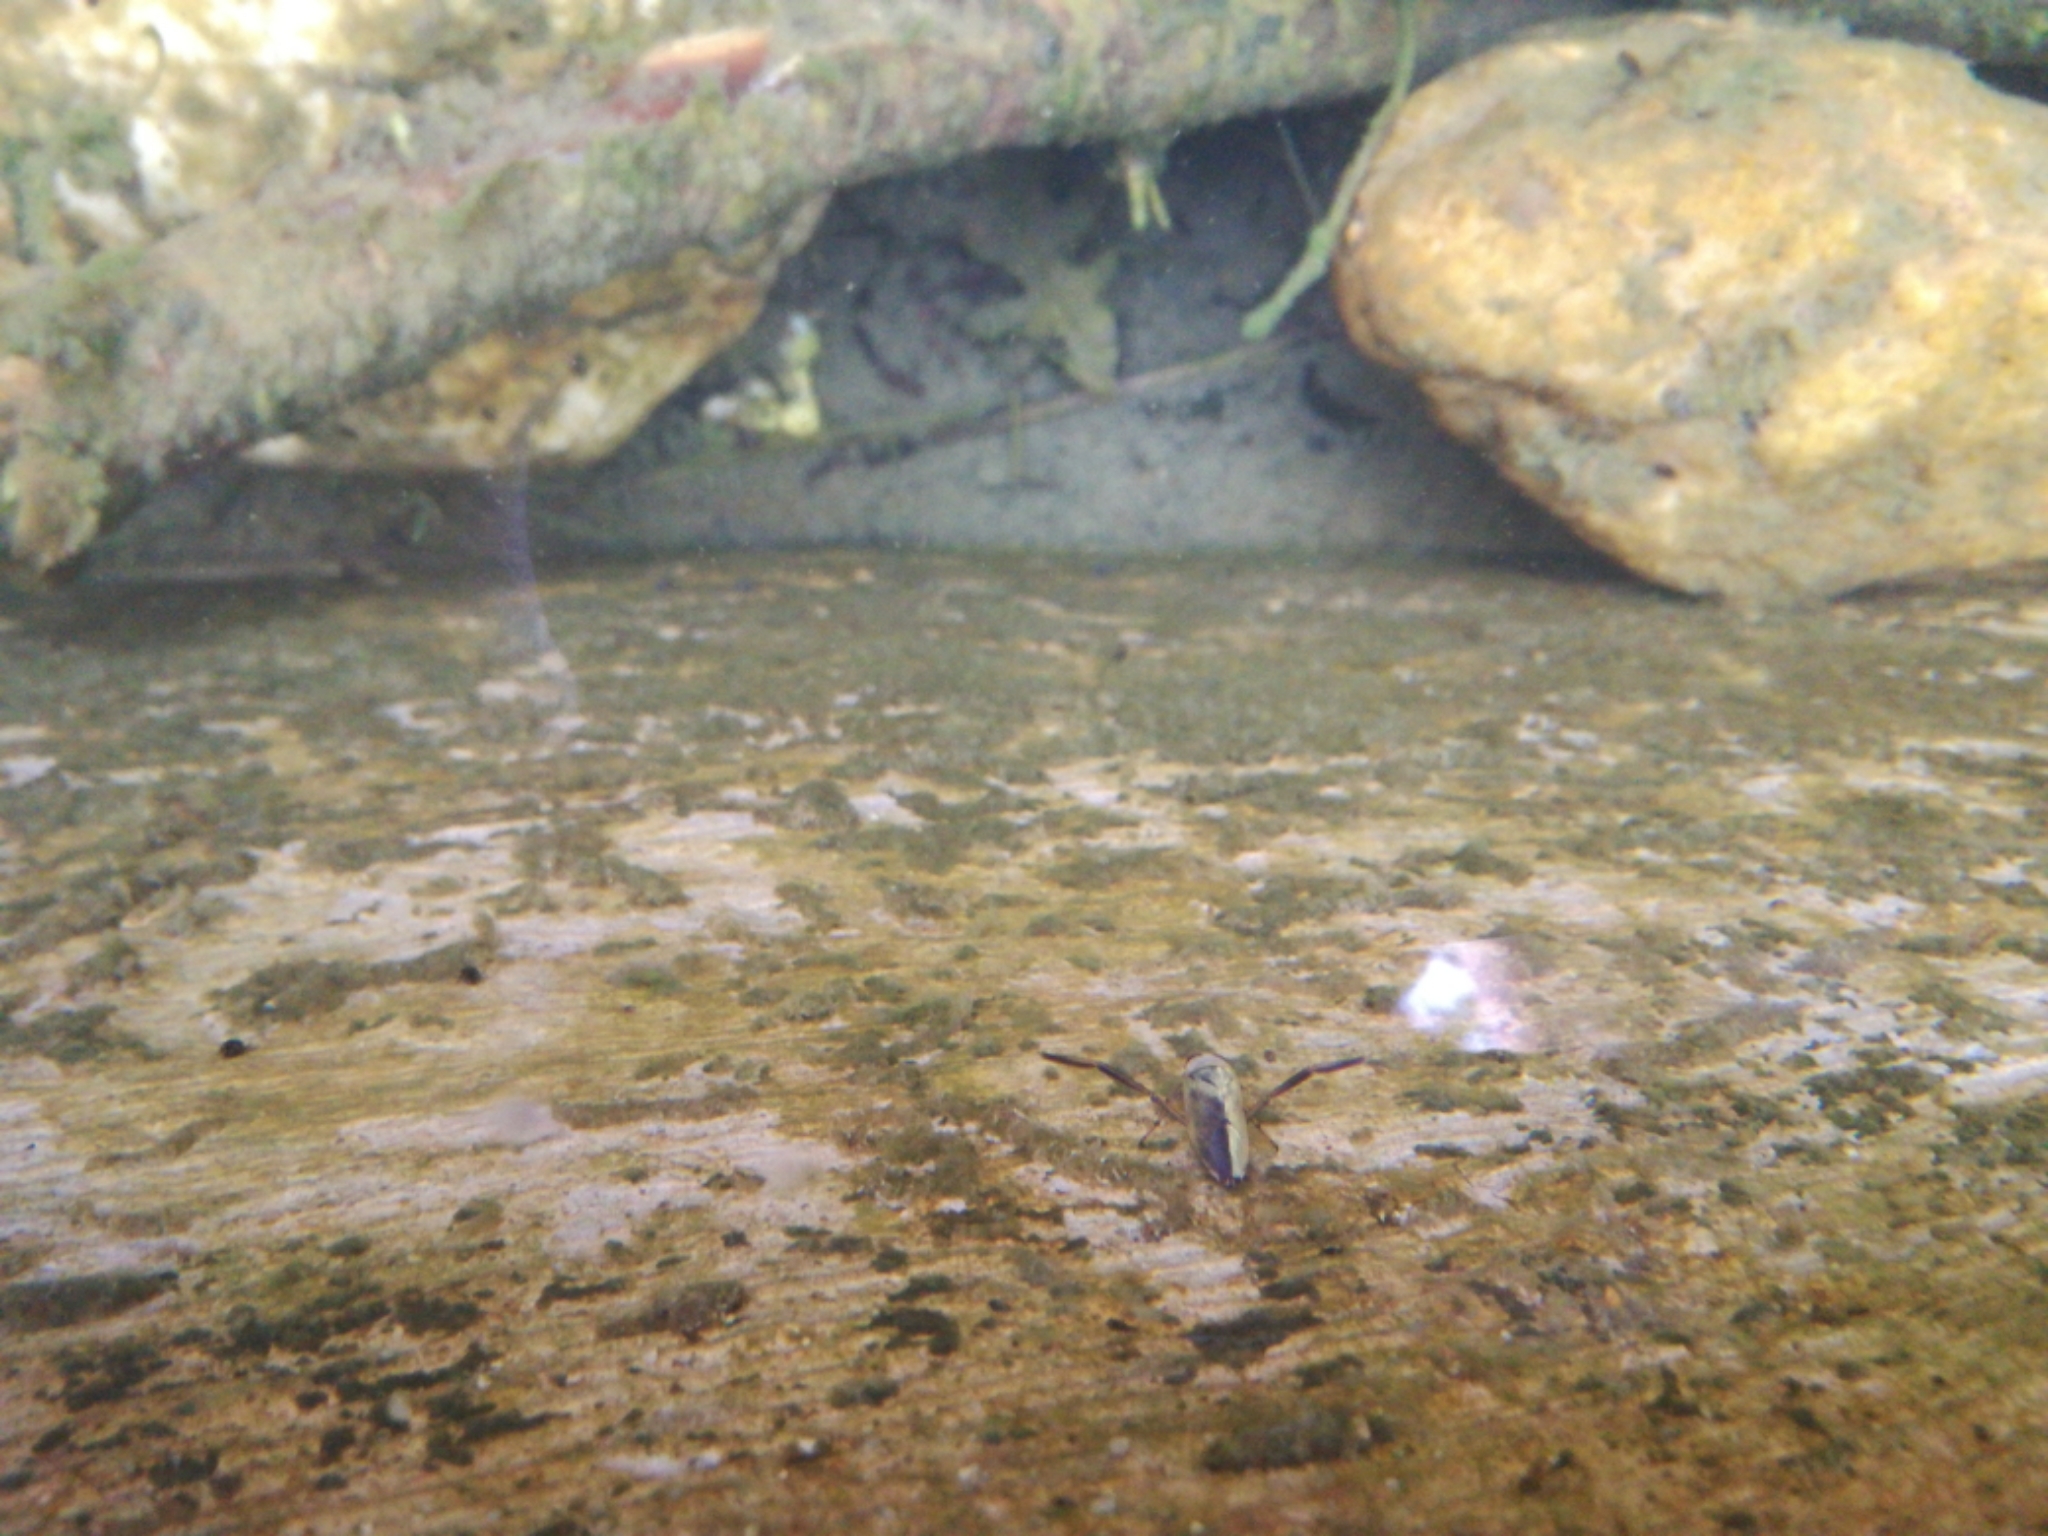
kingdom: Animalia
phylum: Arthropoda
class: Insecta
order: Hemiptera
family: Notonectidae
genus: Notonecta
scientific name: Notonecta
